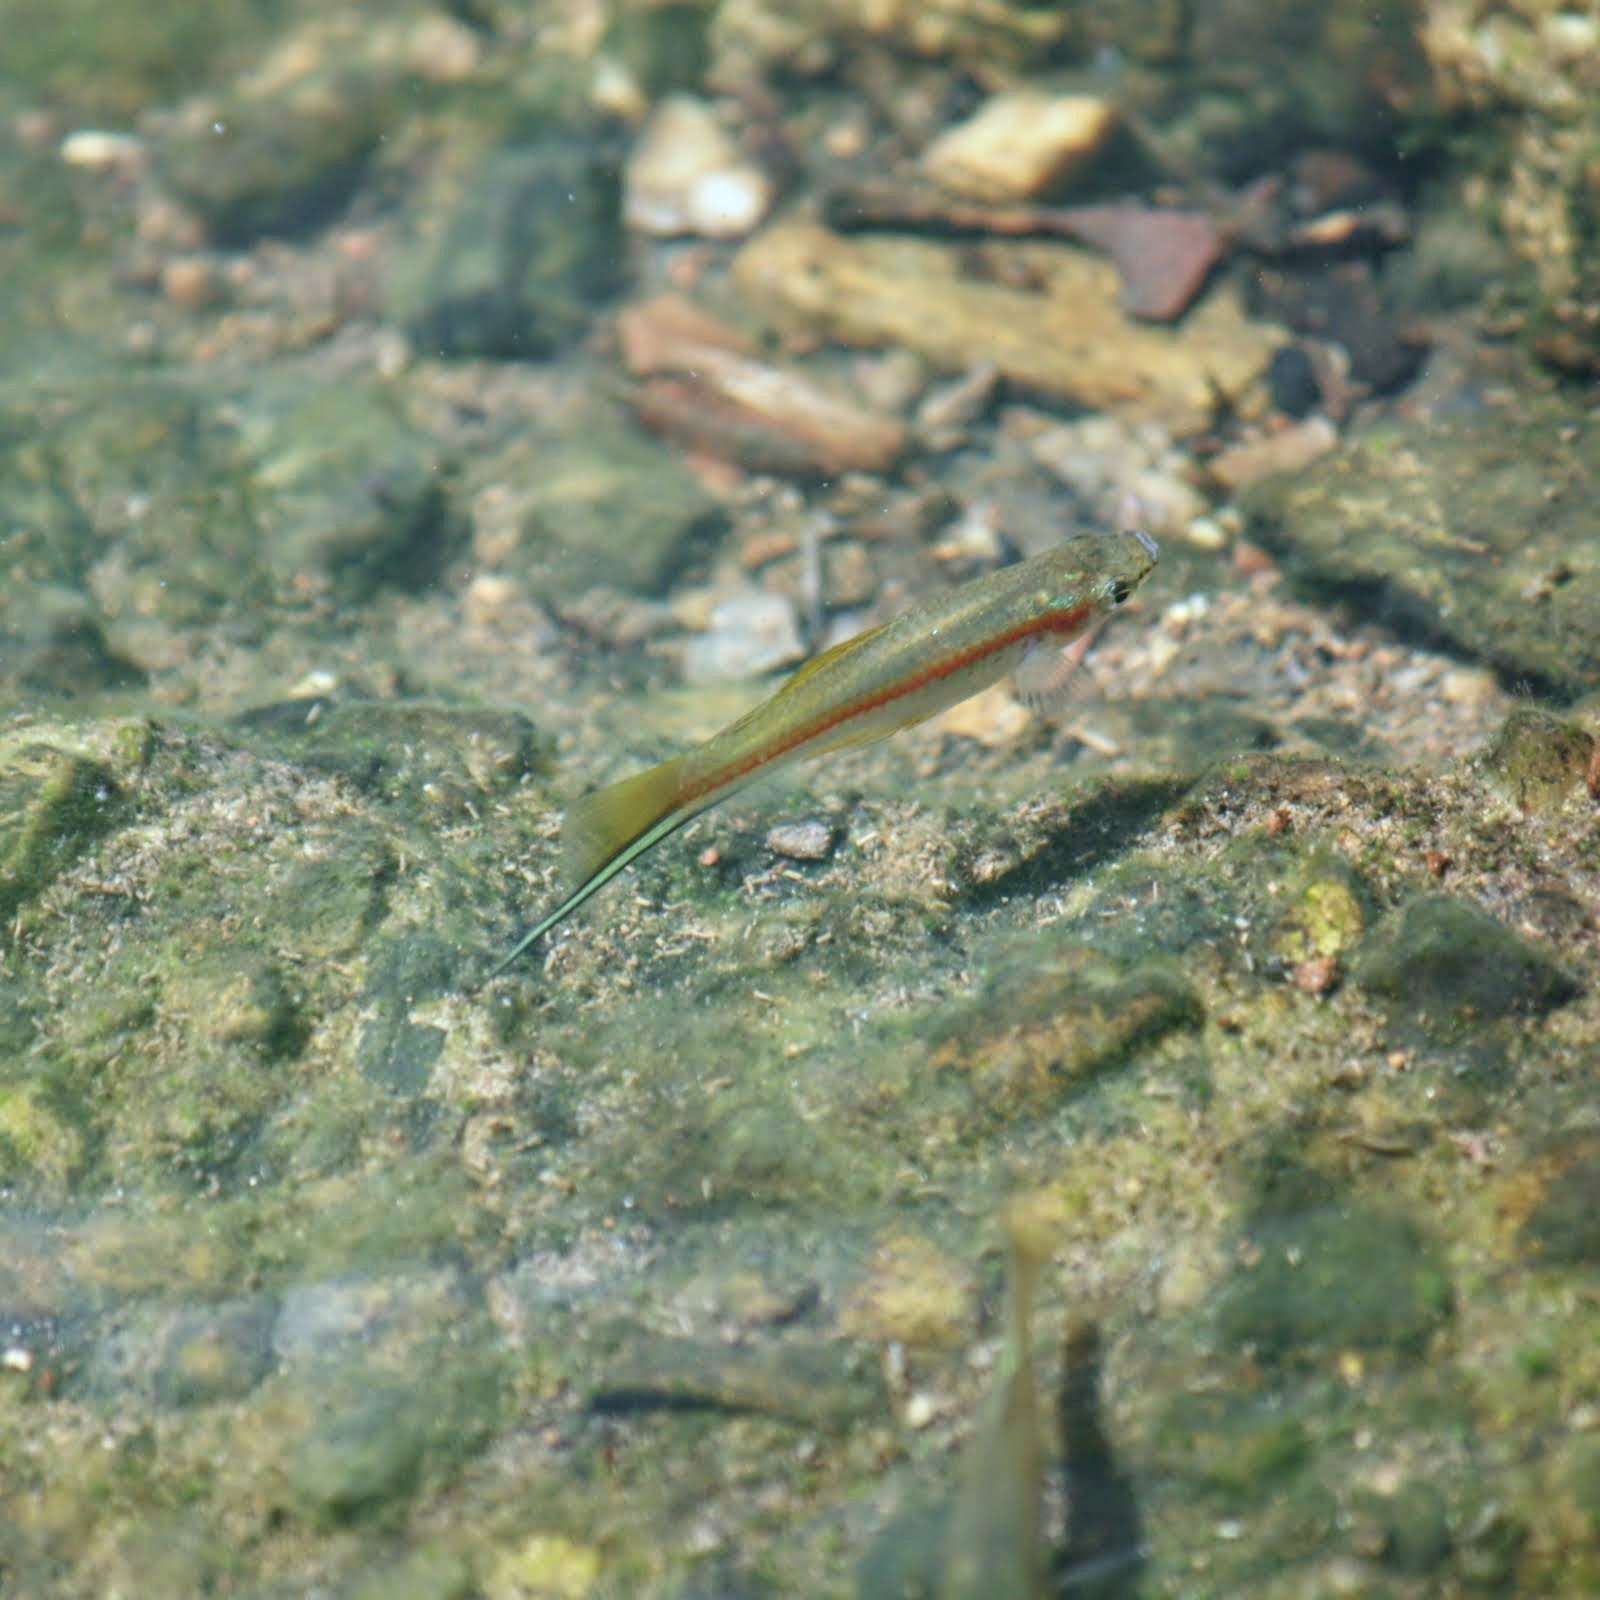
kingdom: Animalia
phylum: Chordata
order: Cyprinodontiformes
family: Poeciliidae
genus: Xiphophorus
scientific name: Xiphophorus hellerii
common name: Green swordtail
